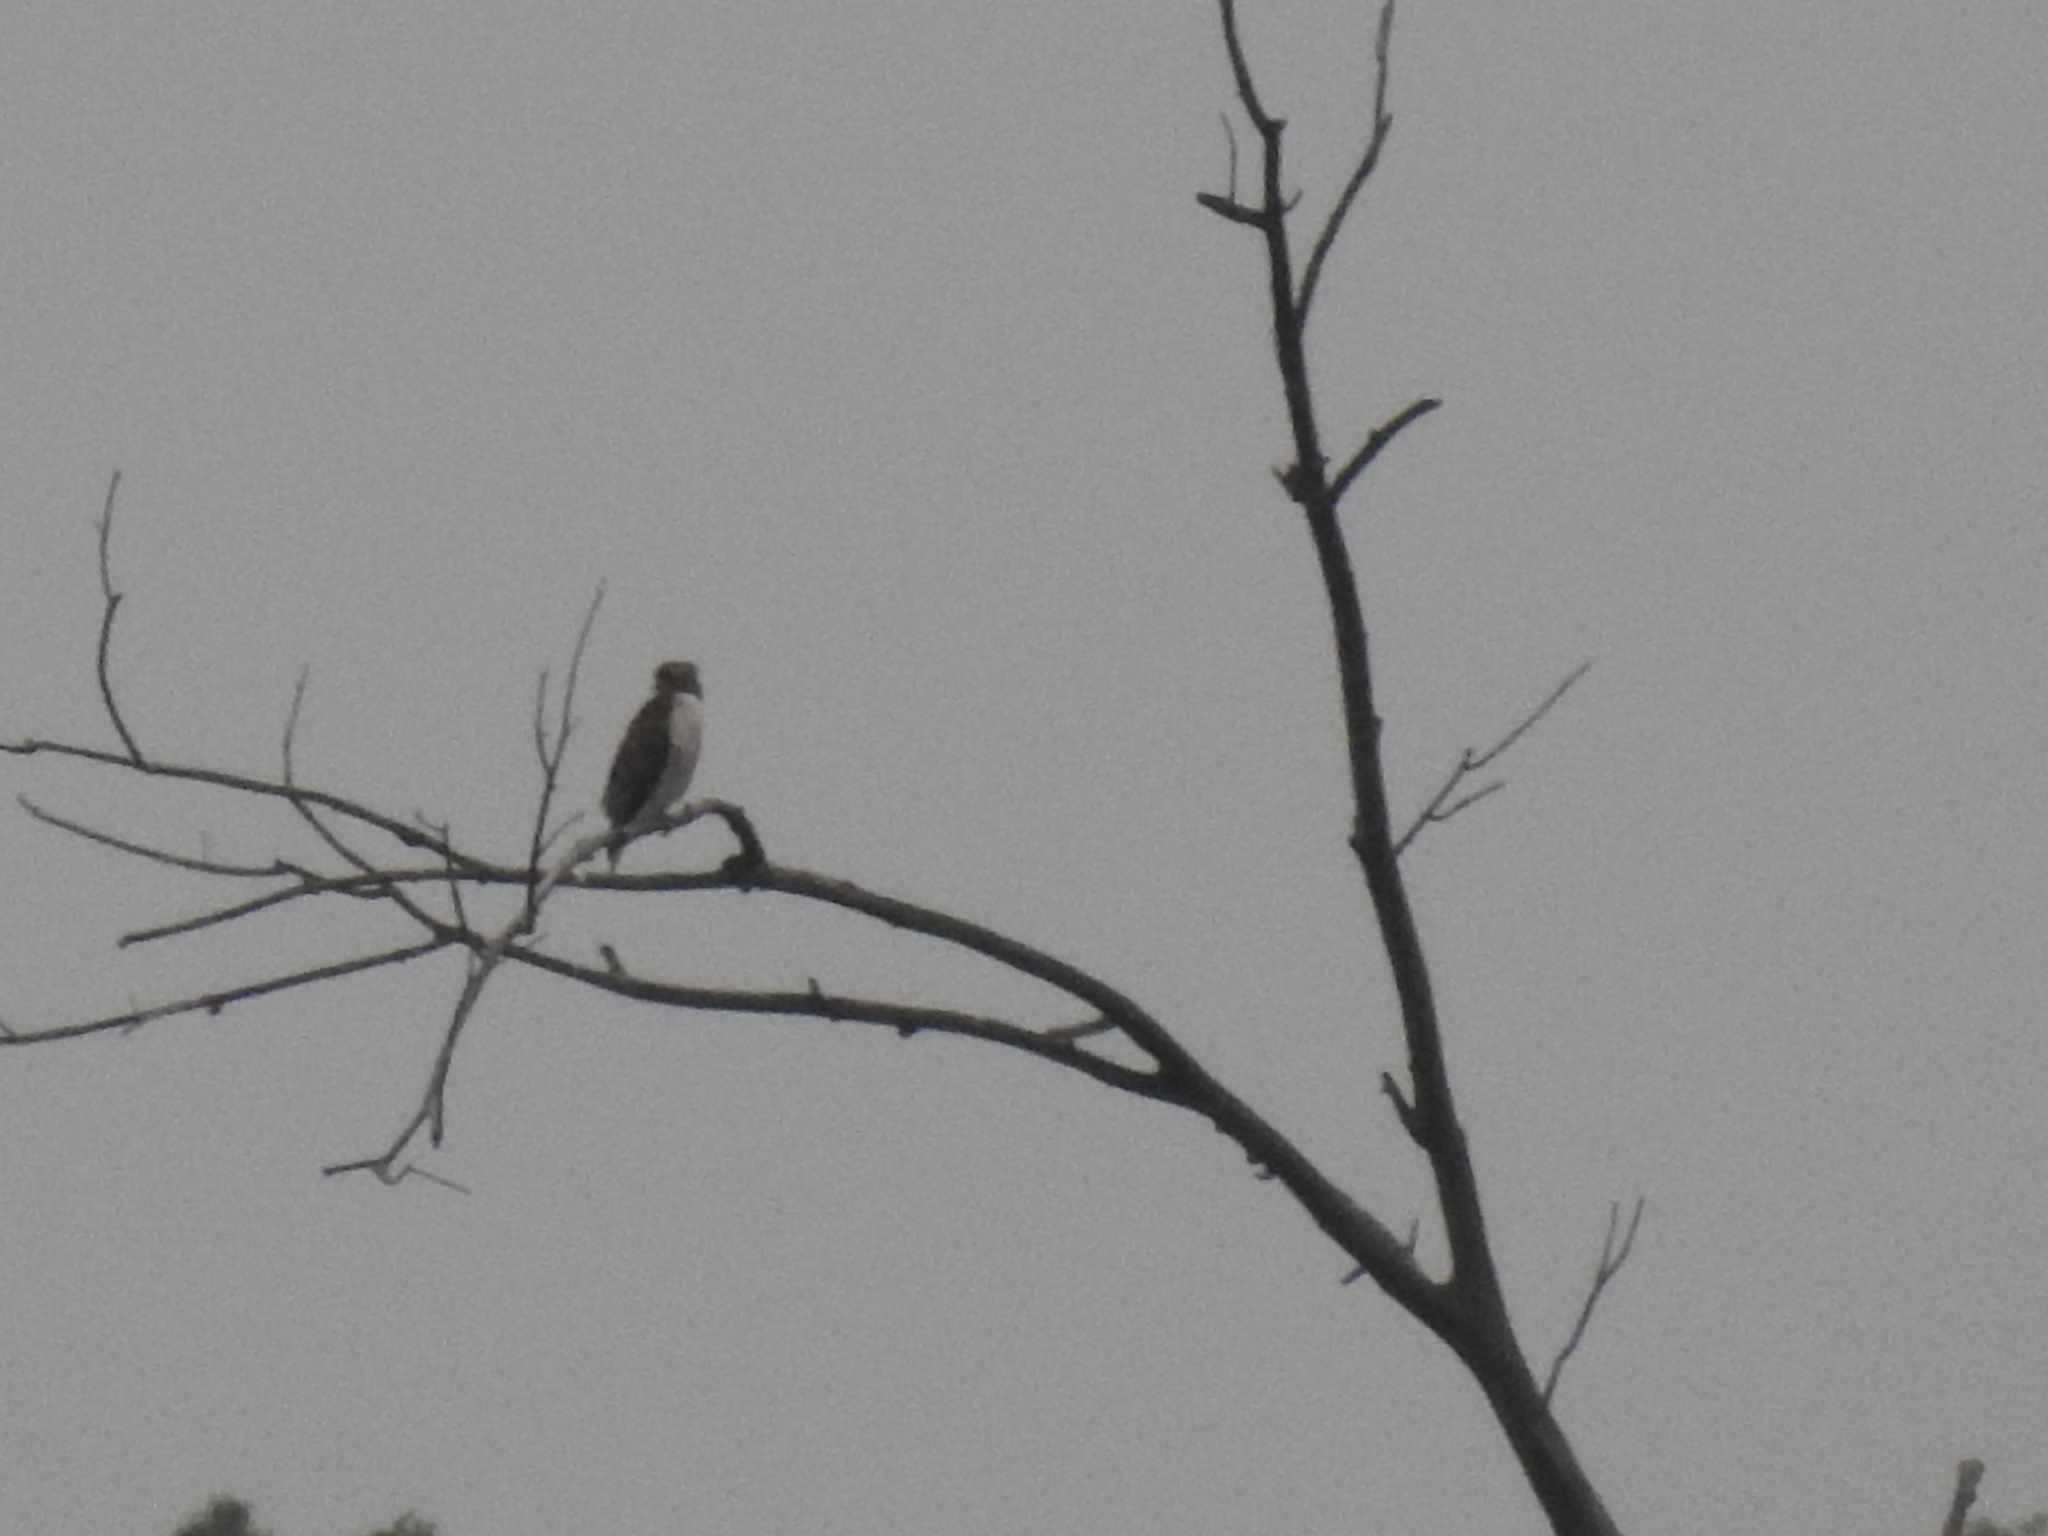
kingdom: Animalia
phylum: Chordata
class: Aves
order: Accipitriformes
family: Accipitridae
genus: Buteo
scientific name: Buteo jamaicensis
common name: Red-tailed hawk
